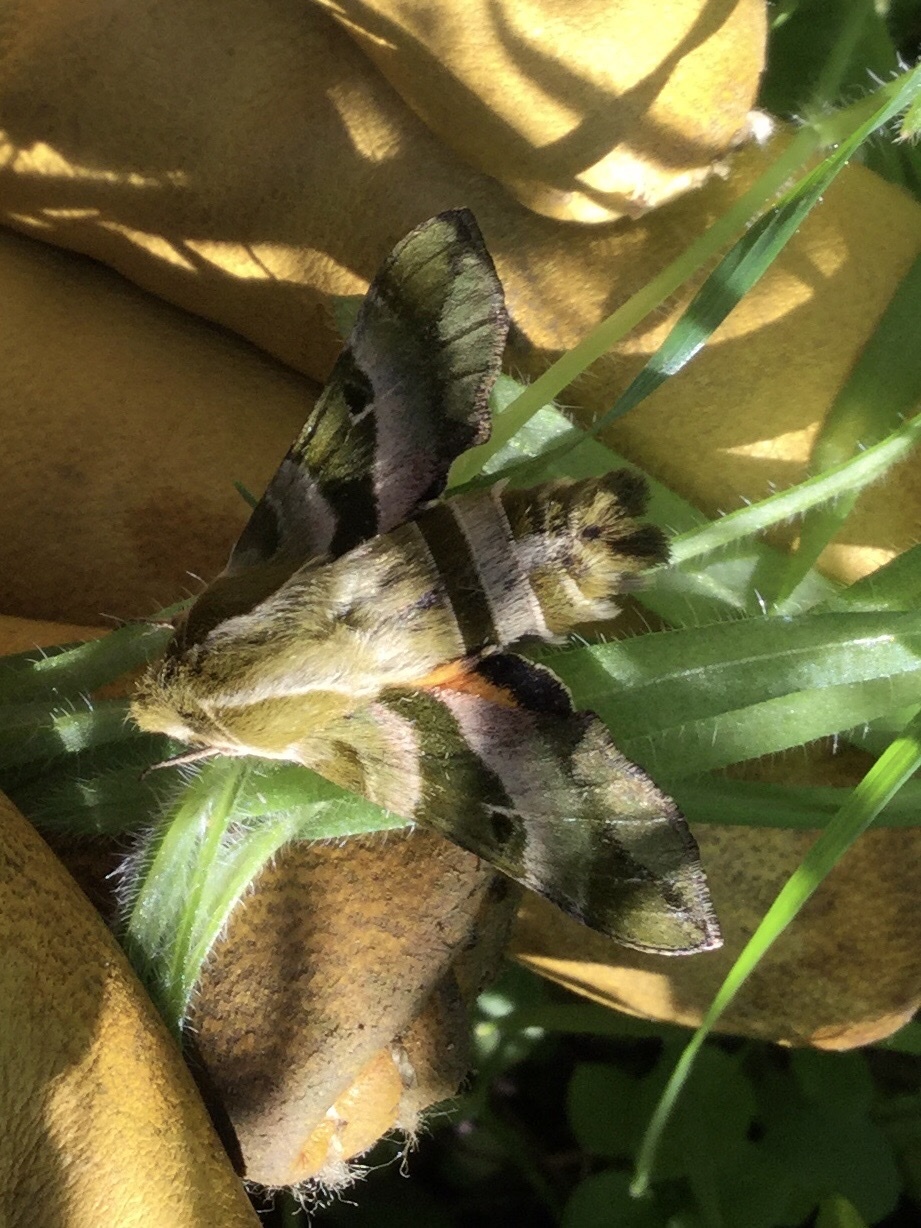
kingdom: Animalia
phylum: Arthropoda
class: Insecta
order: Lepidoptera
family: Sphingidae
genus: Proserpinus
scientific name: Proserpinus clarkiae
